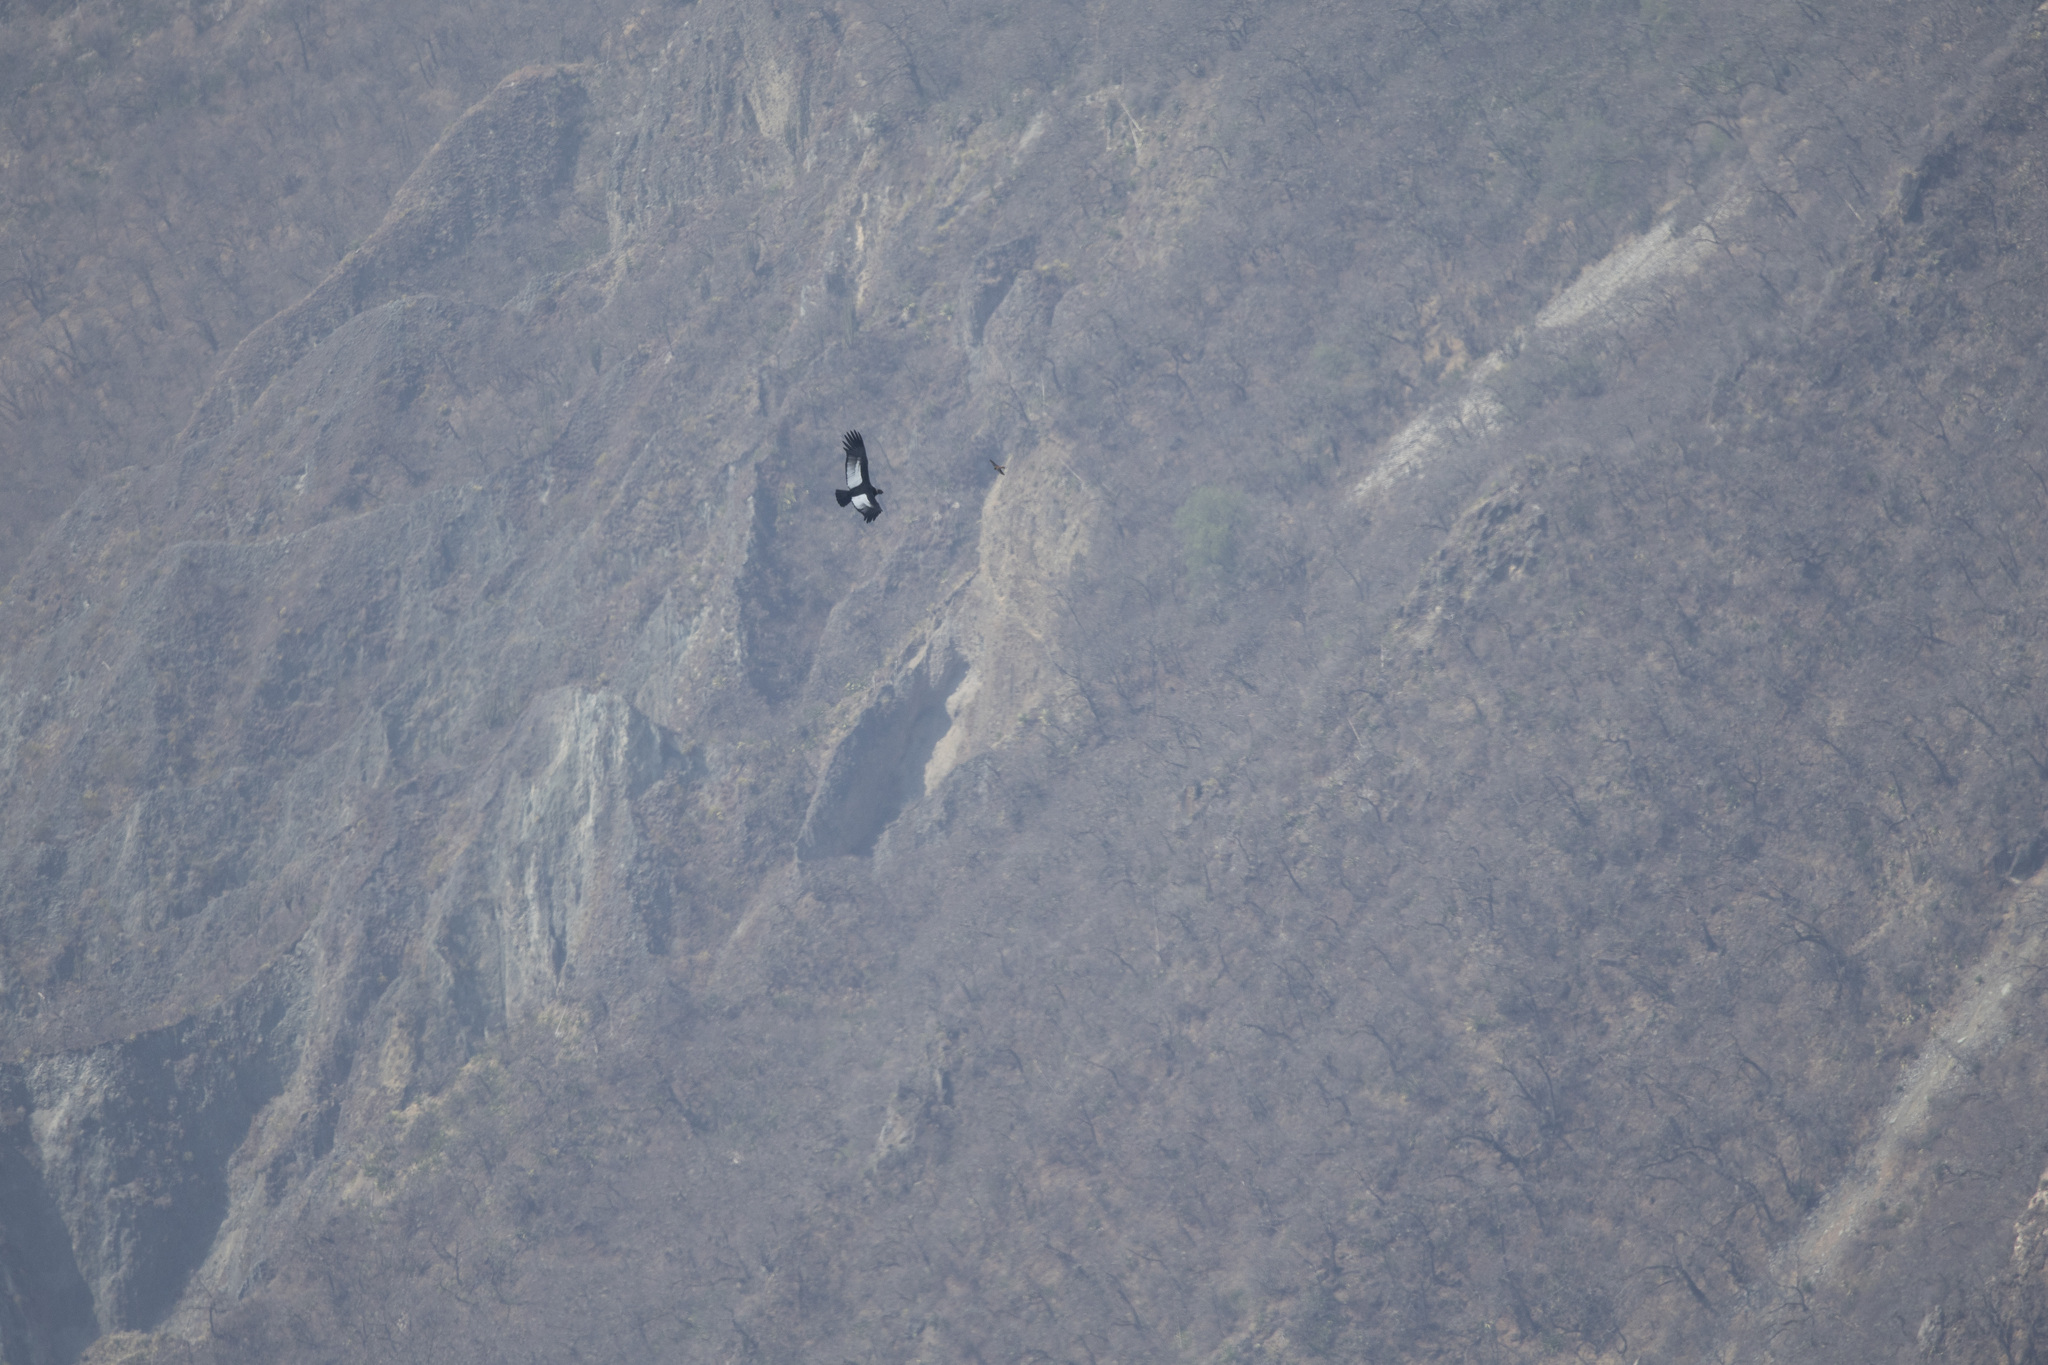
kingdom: Animalia
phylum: Chordata
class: Aves
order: Falconiformes
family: Falconidae
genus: Falco
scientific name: Falco sparverius
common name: American kestrel
